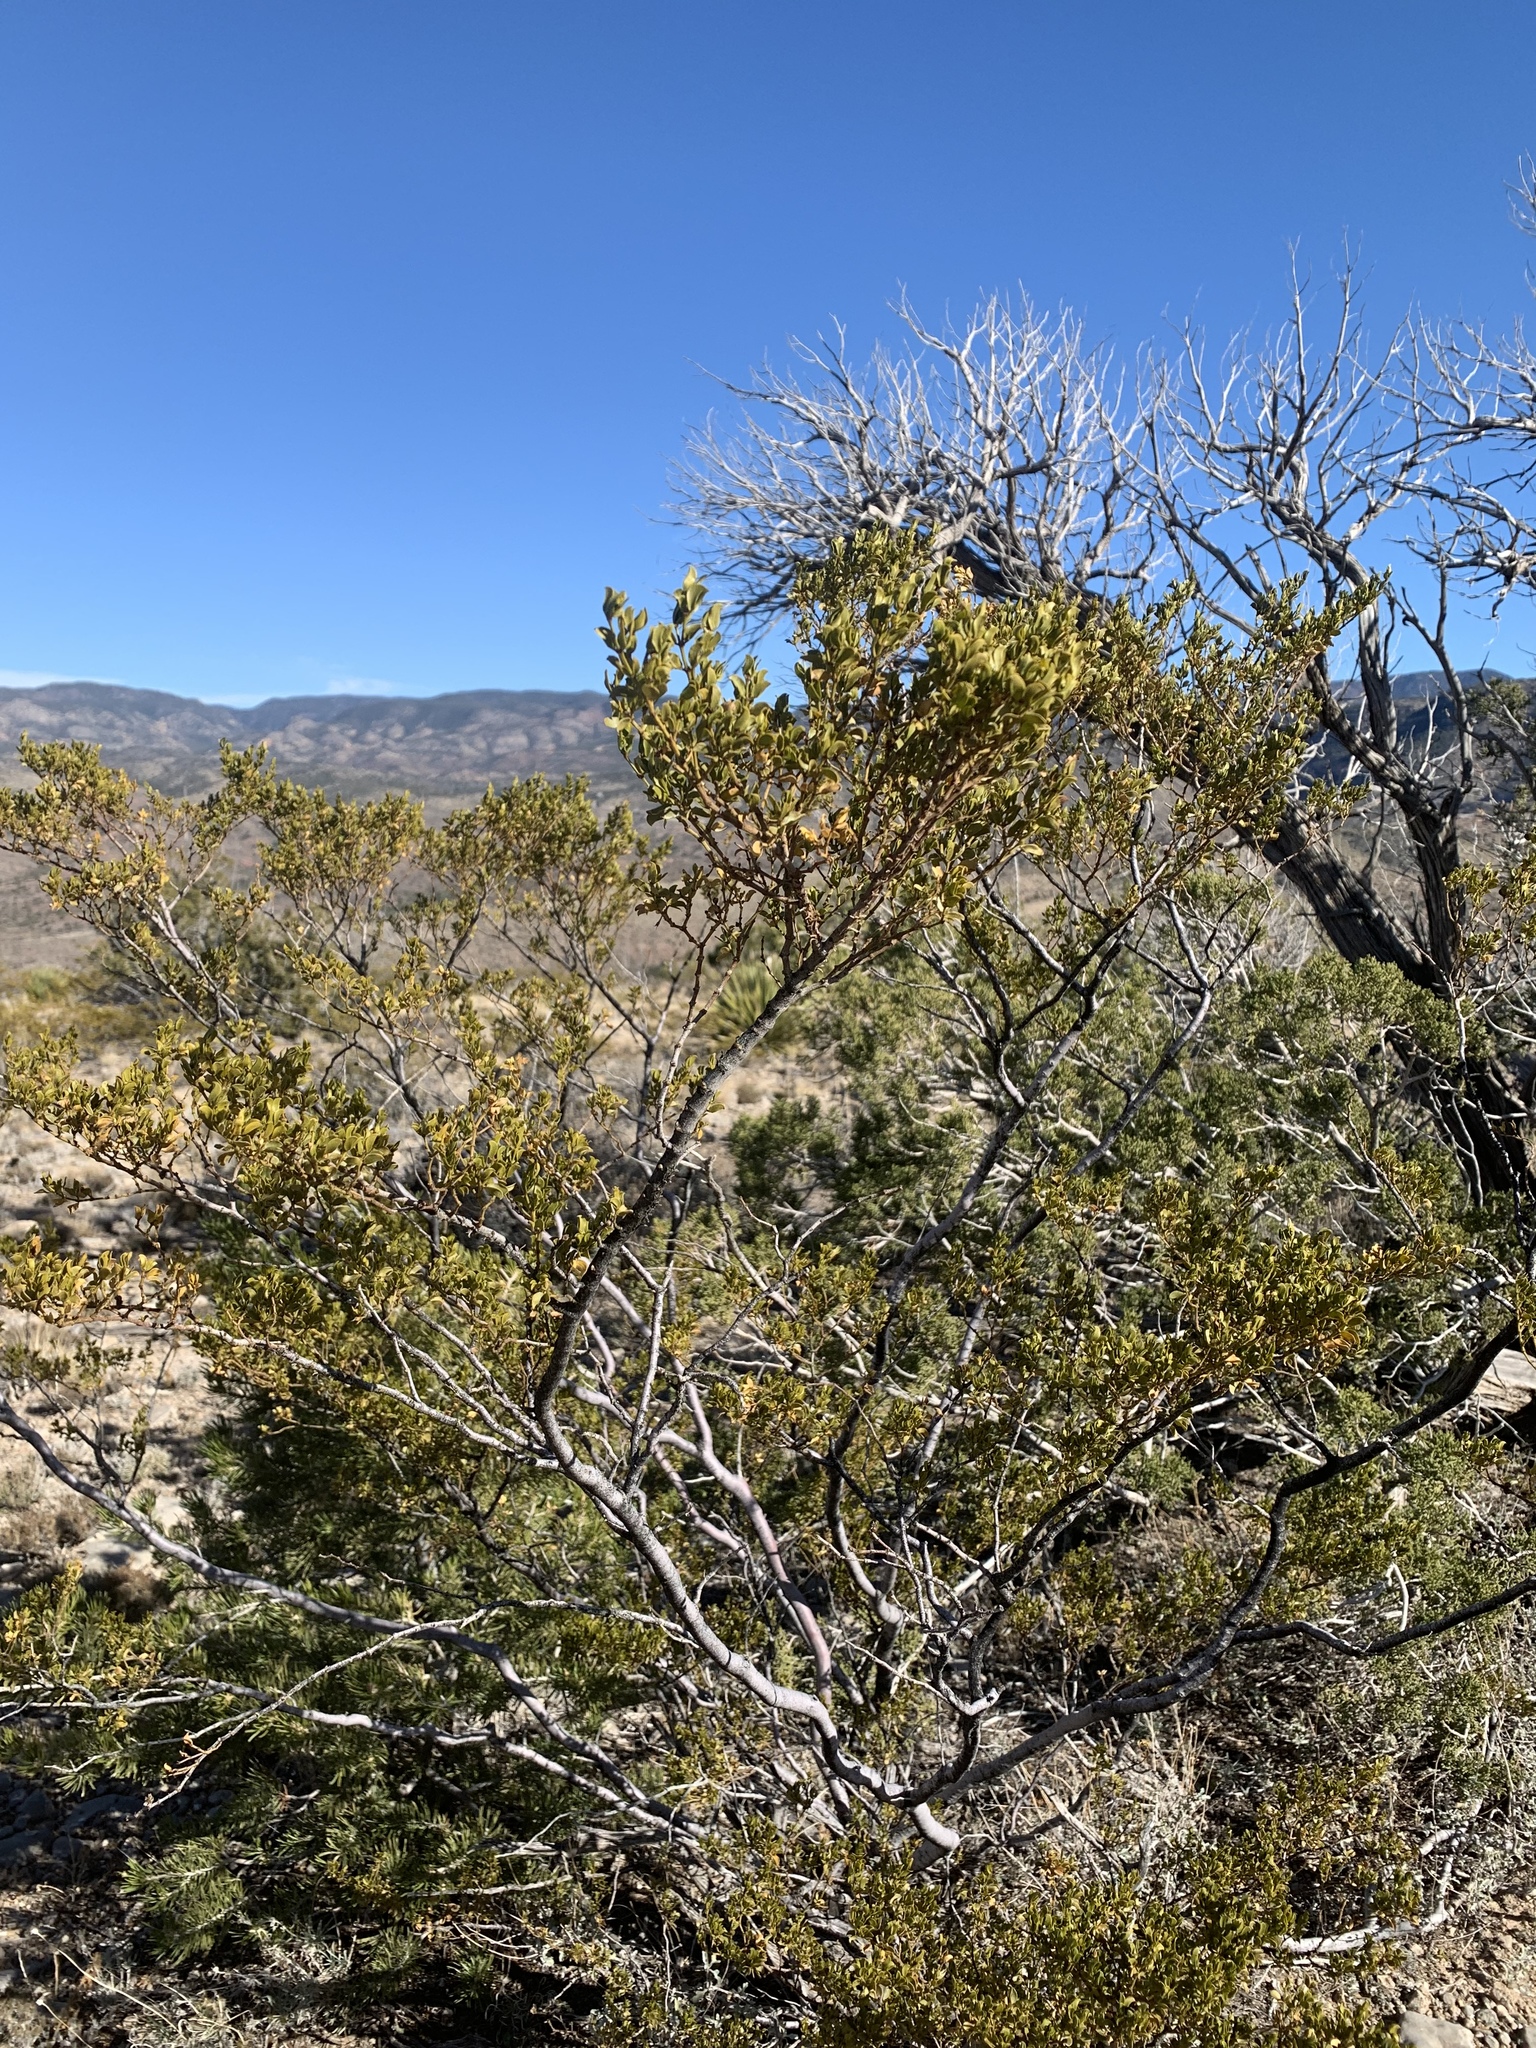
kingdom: Plantae
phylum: Tracheophyta
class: Magnoliopsida
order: Zygophyllales
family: Zygophyllaceae
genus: Larrea
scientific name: Larrea tridentata
